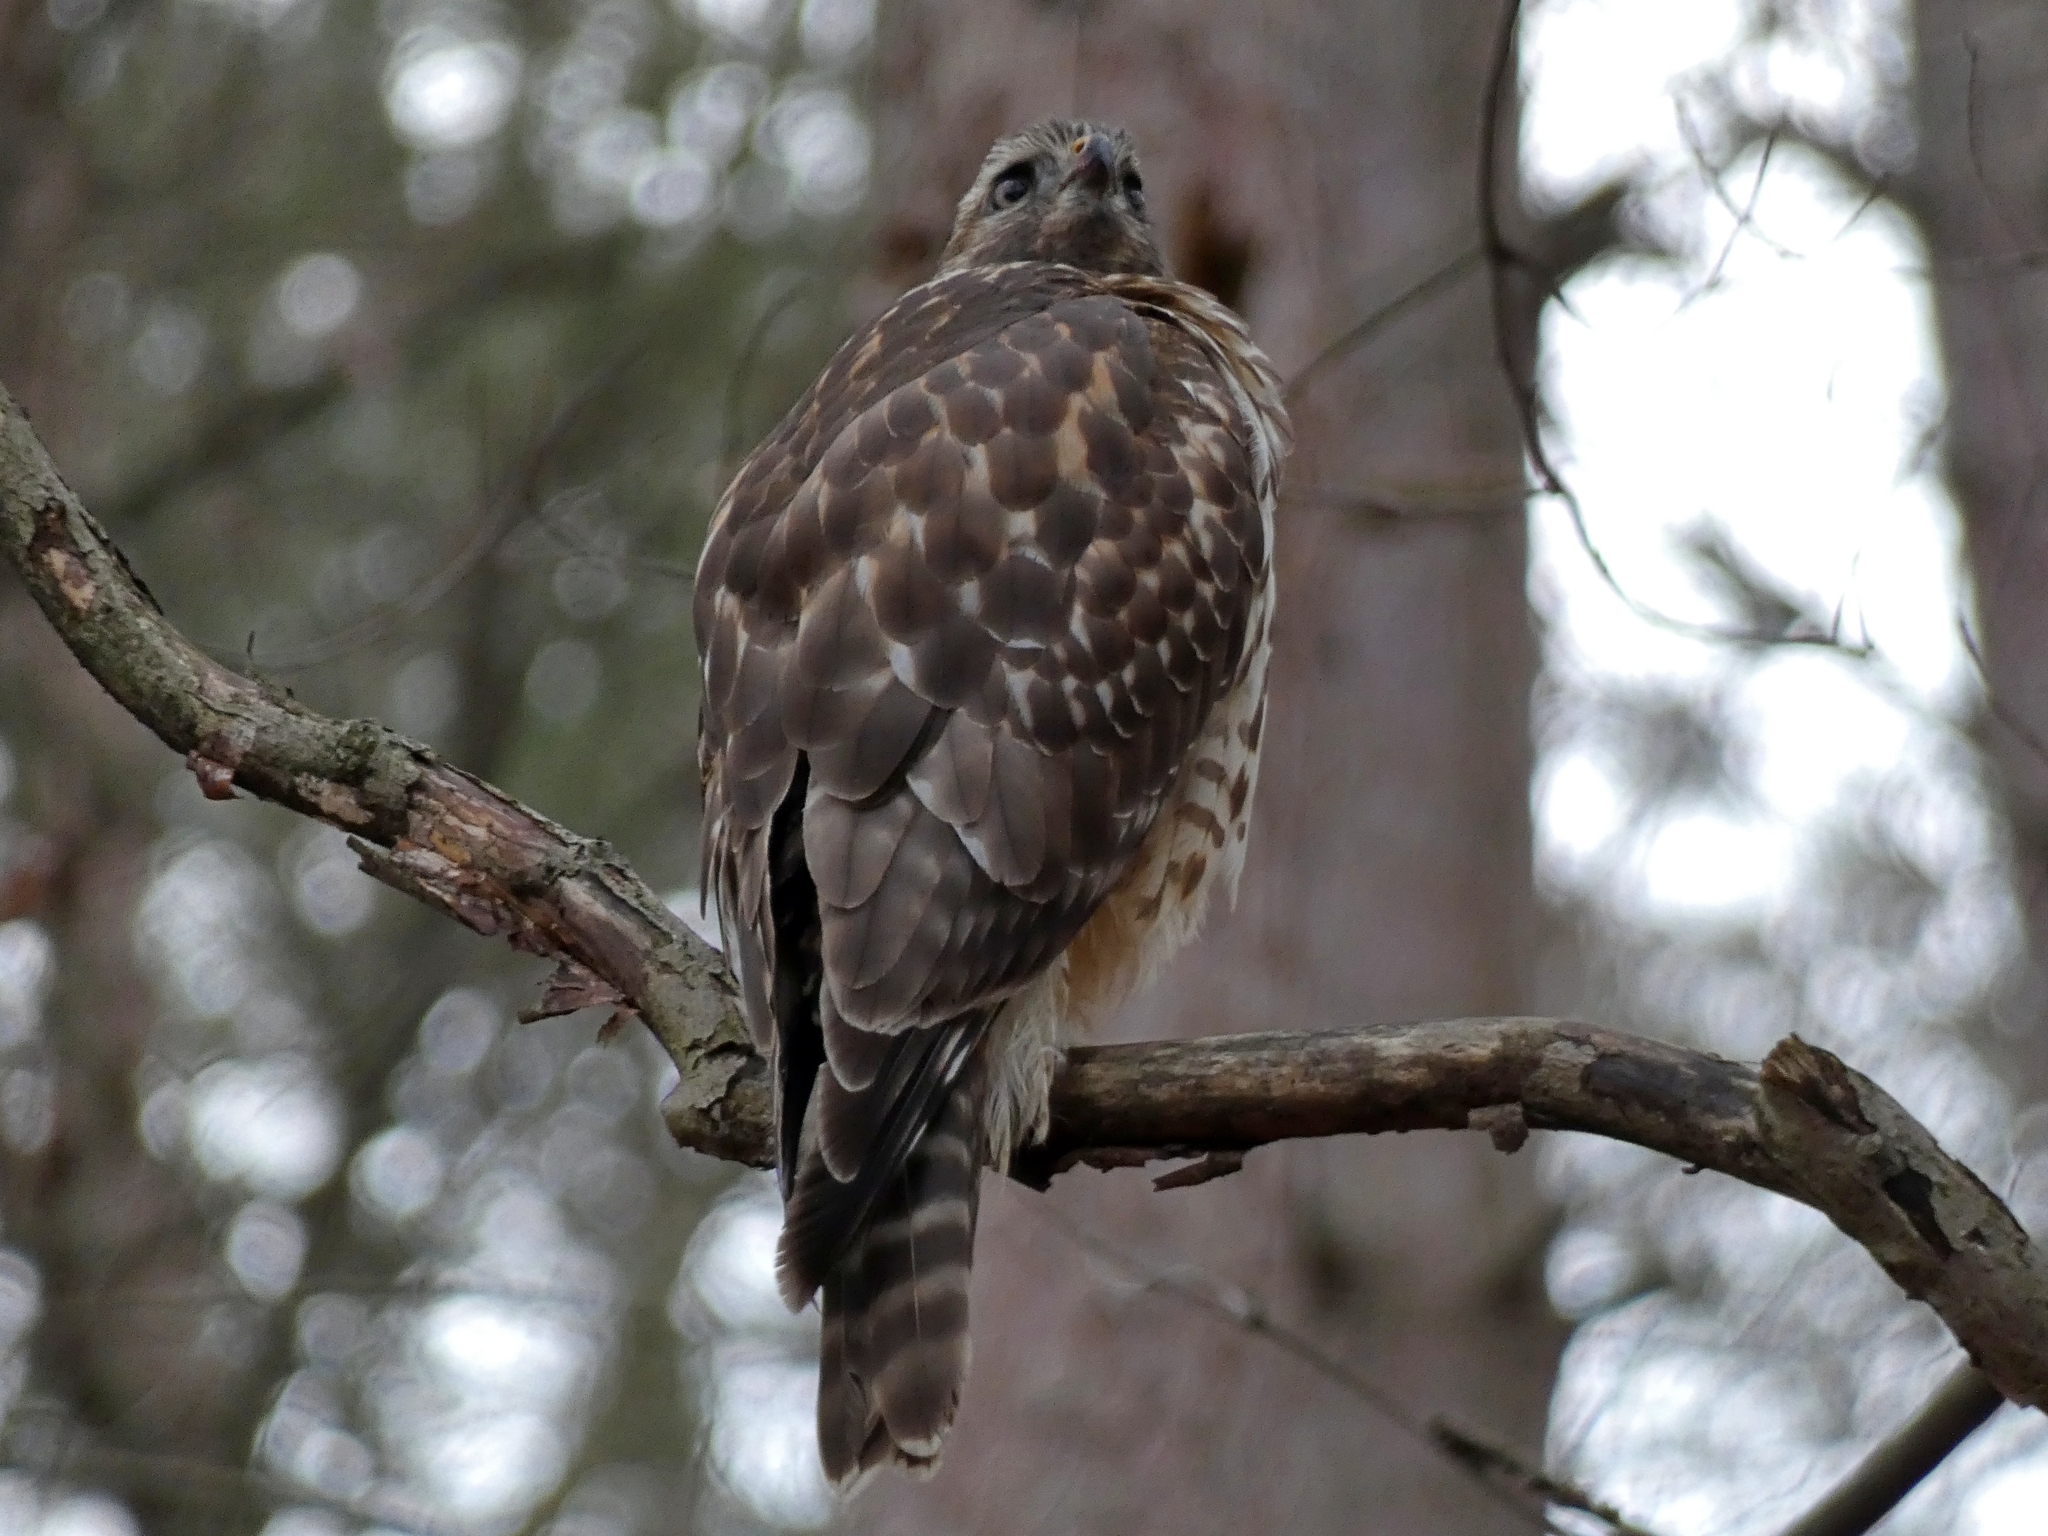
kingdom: Animalia
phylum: Chordata
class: Aves
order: Accipitriformes
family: Accipitridae
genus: Buteo
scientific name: Buteo lineatus
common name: Red-shouldered hawk
